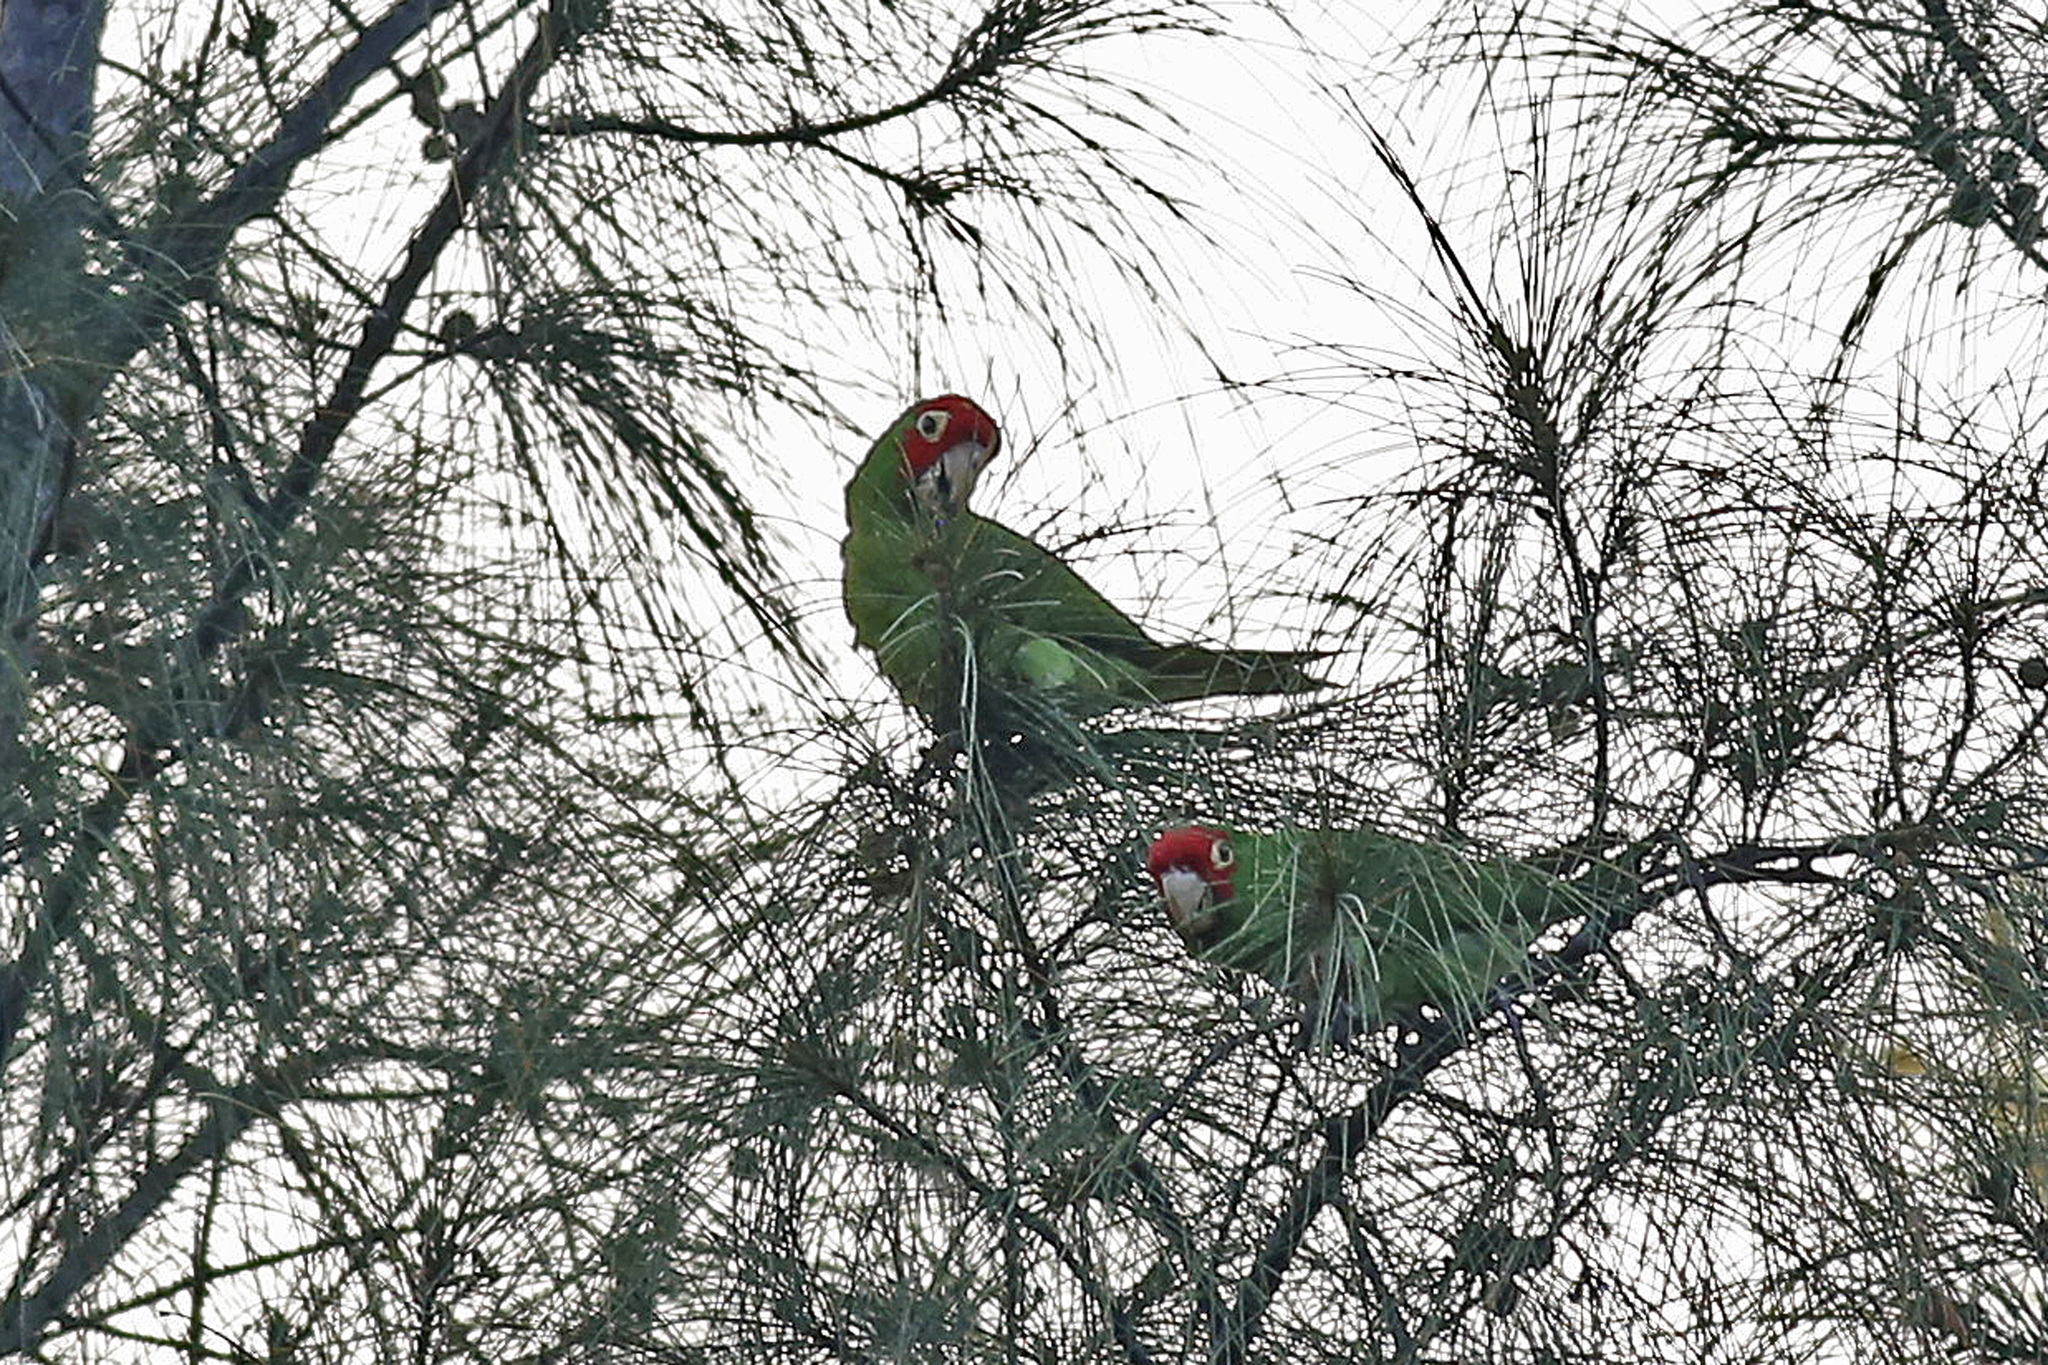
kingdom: Animalia
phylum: Chordata
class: Aves
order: Psittaciformes
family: Psittacidae
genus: Aratinga
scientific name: Aratinga erythrogenys
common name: Red-masked parakeet
